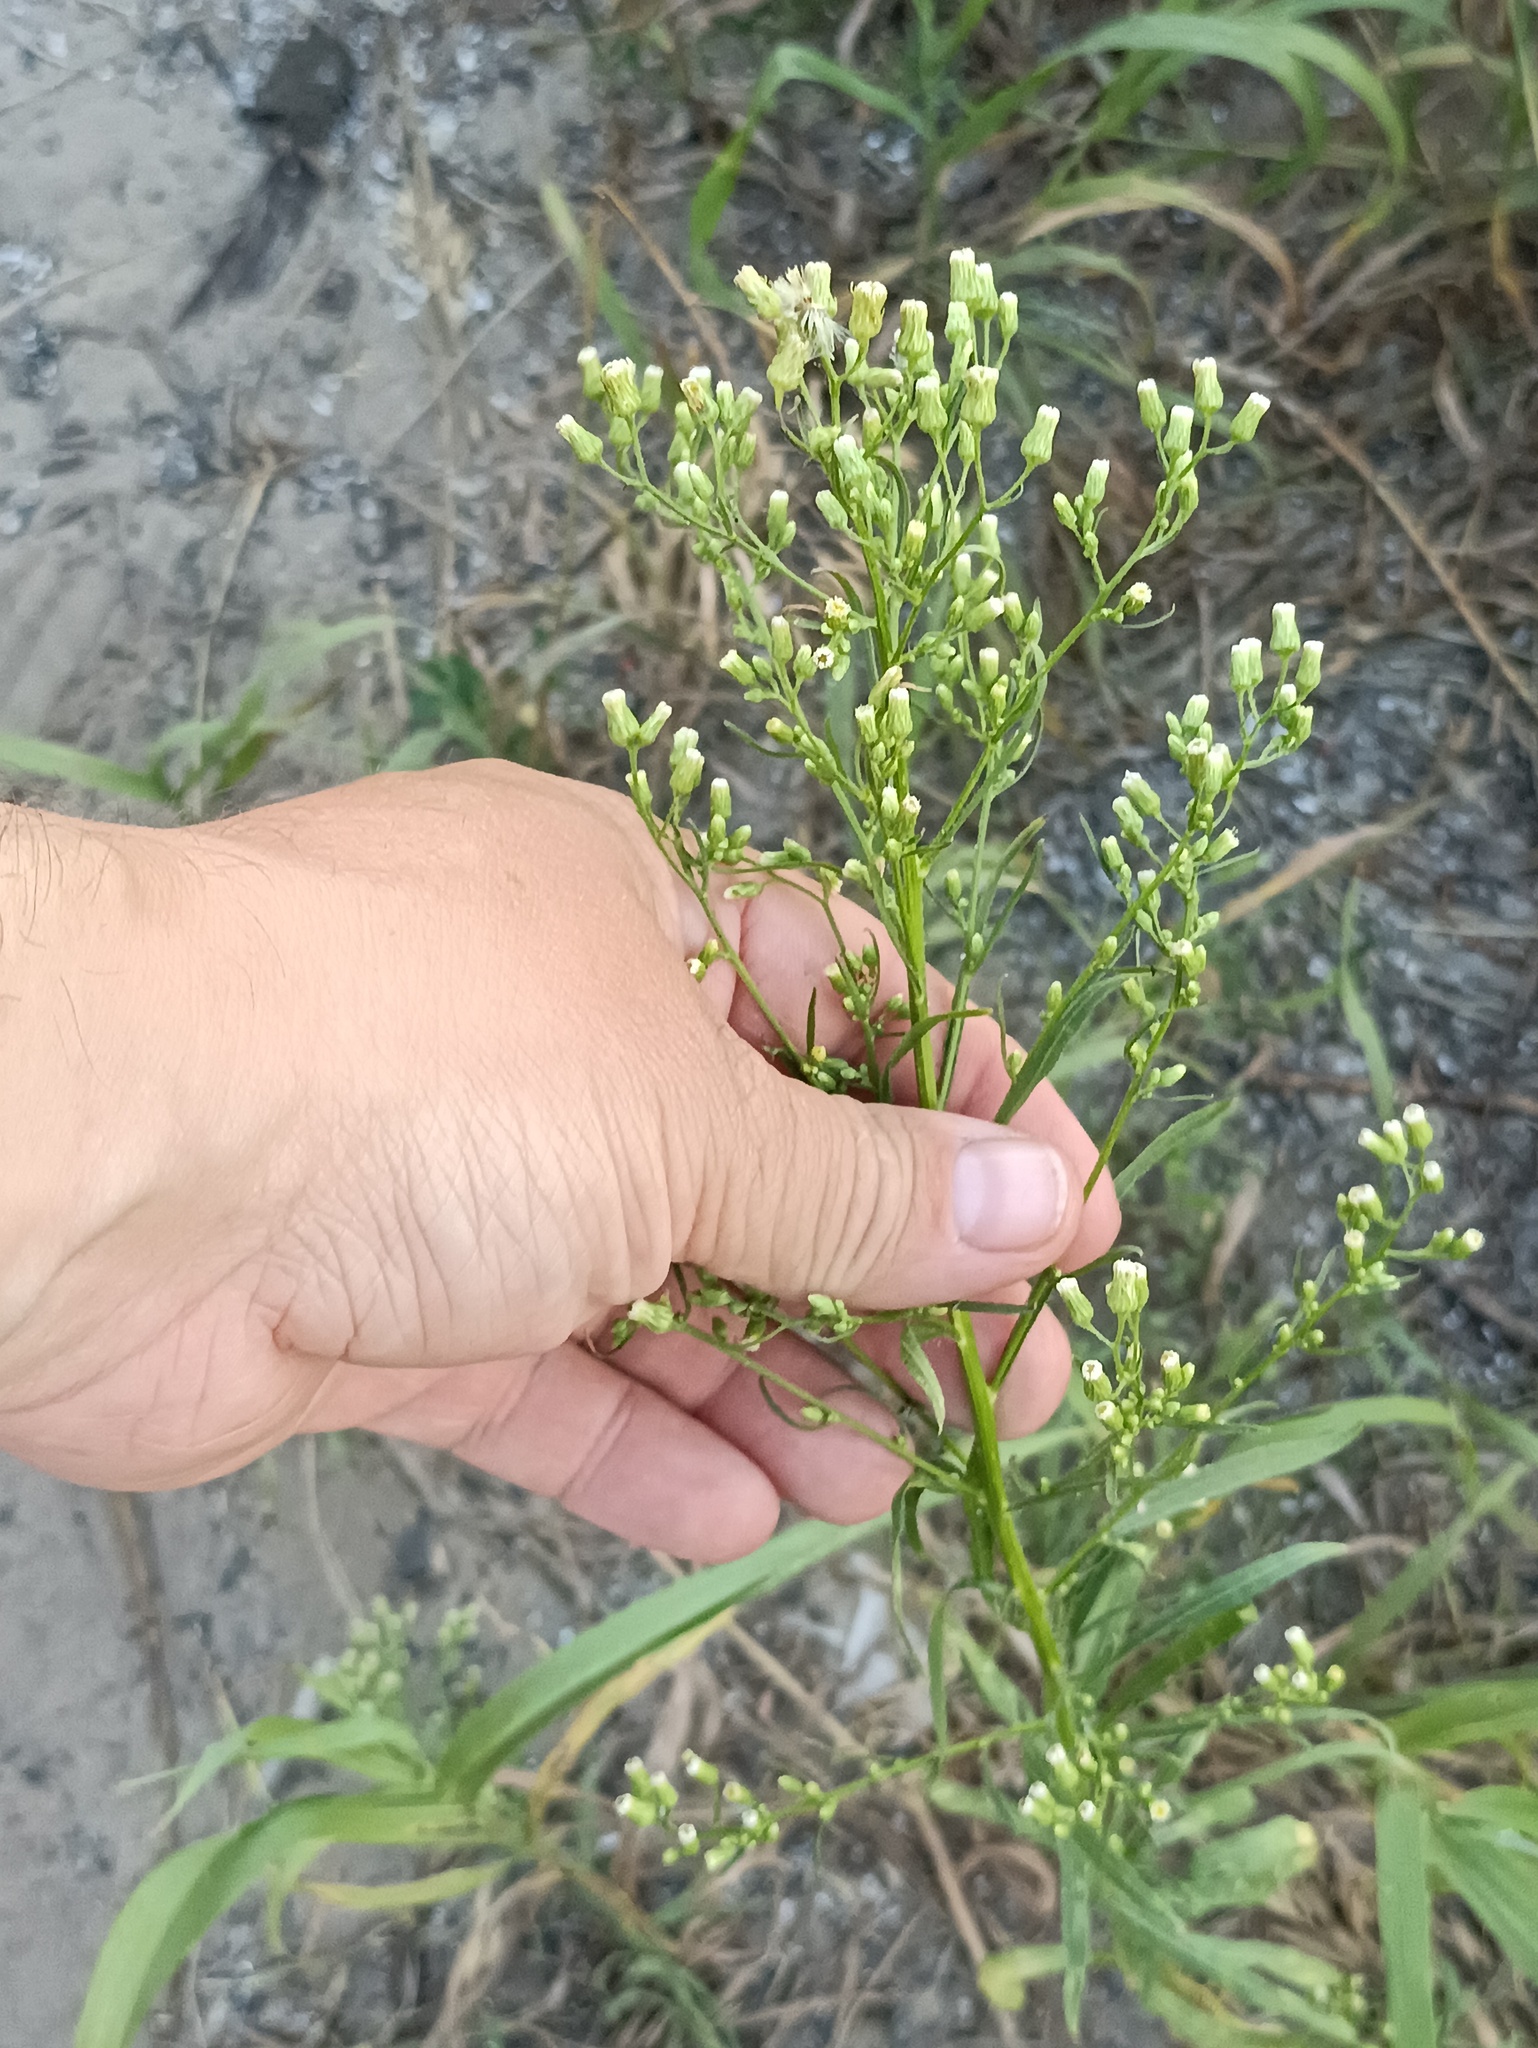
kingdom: Plantae
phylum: Tracheophyta
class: Magnoliopsida
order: Asterales
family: Asteraceae
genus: Erigeron
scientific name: Erigeron canadensis
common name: Canadian fleabane
